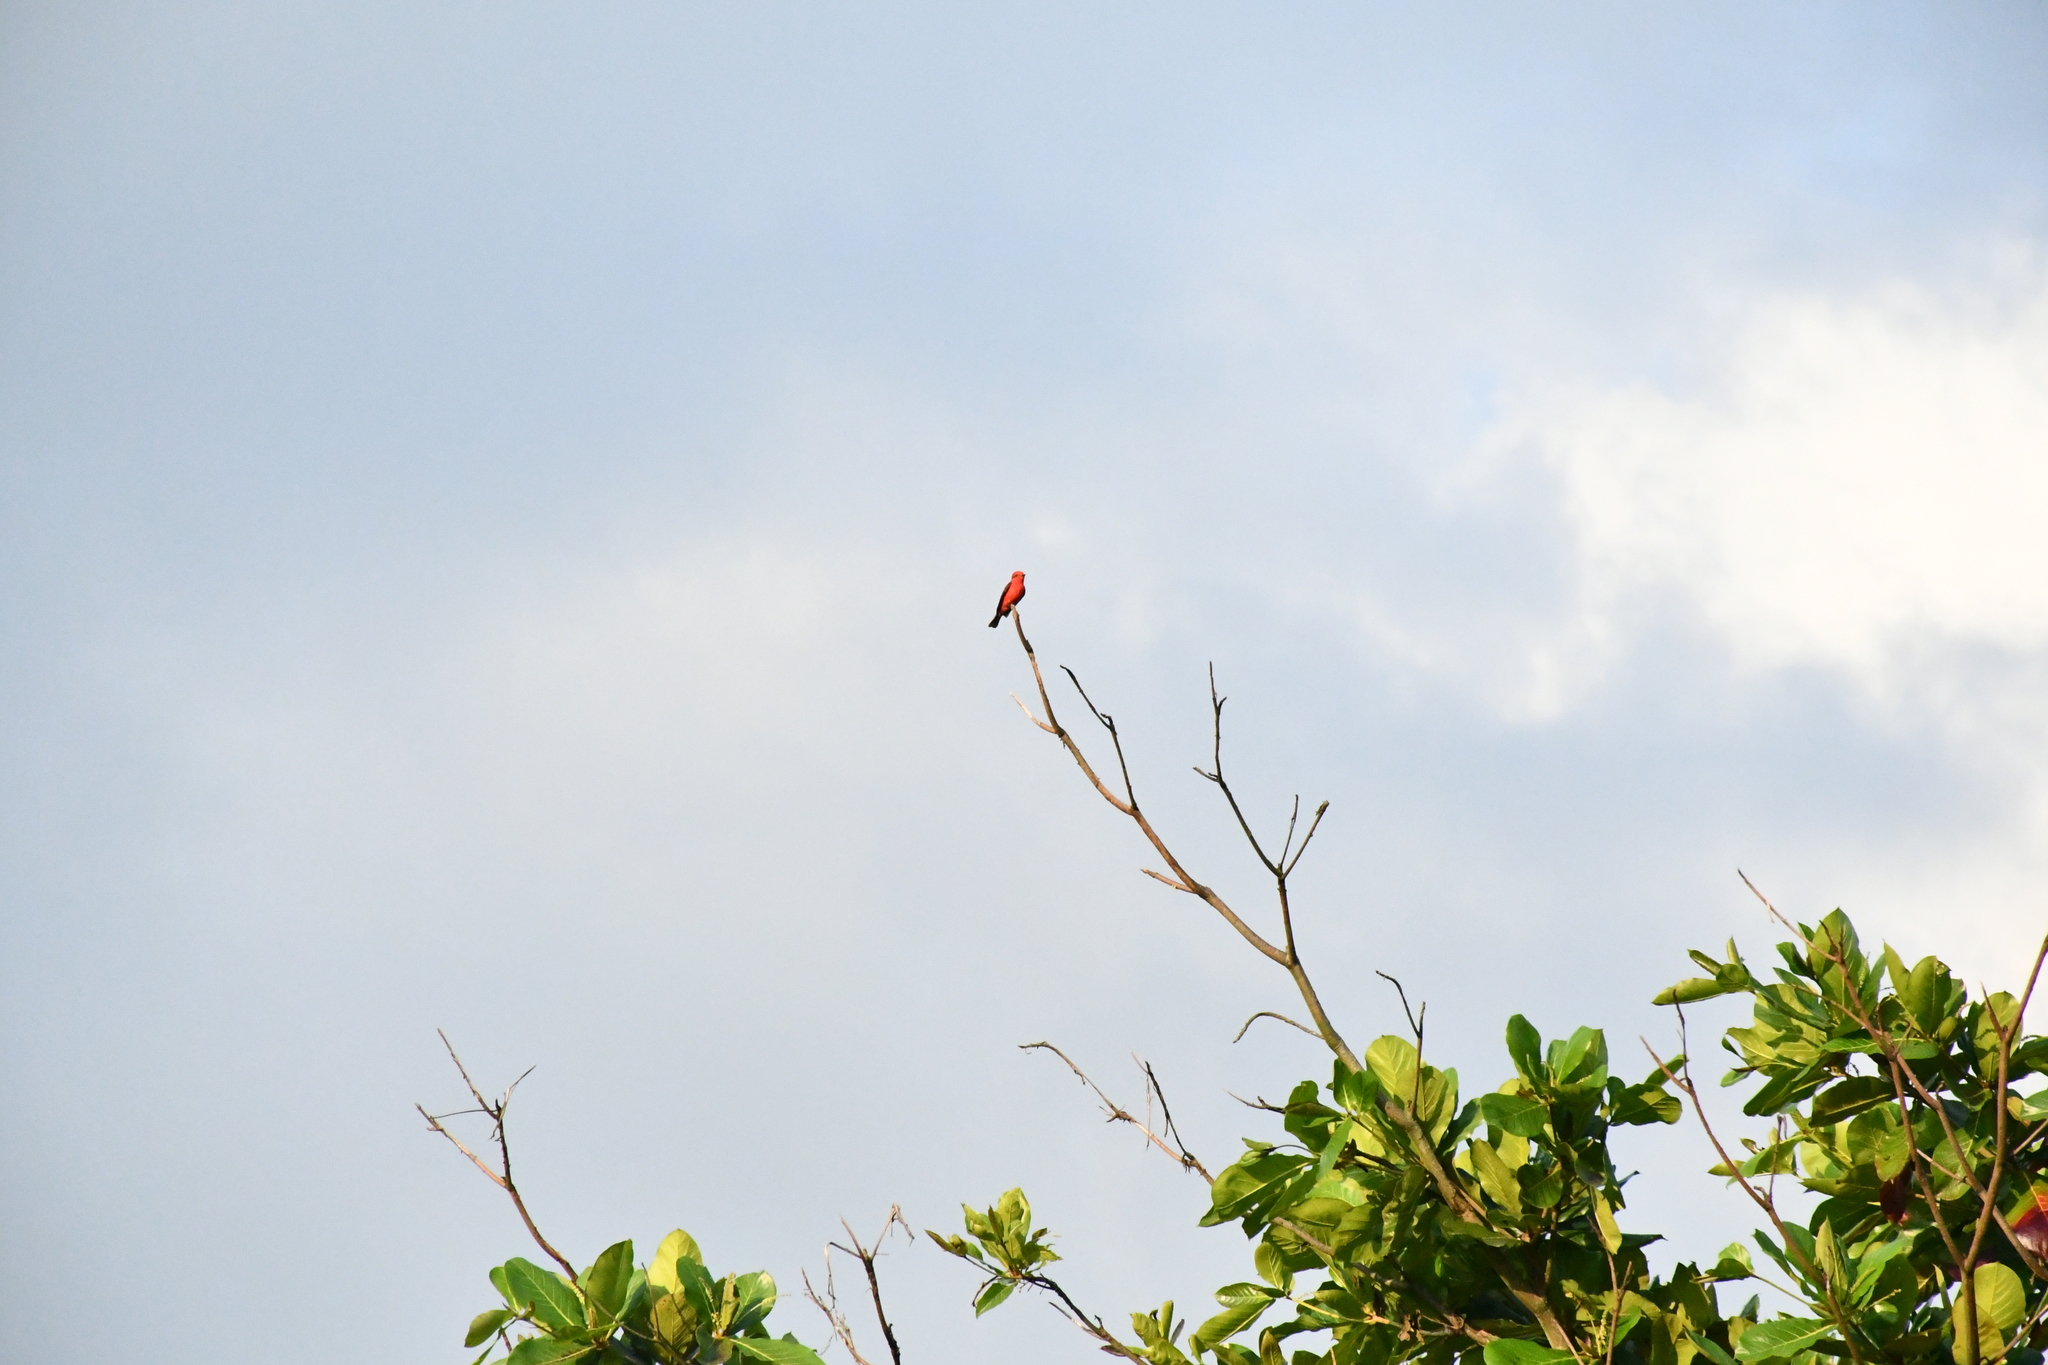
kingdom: Animalia
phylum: Chordata
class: Aves
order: Passeriformes
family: Tyrannidae
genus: Pyrocephalus
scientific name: Pyrocephalus rubinus
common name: Vermilion flycatcher
